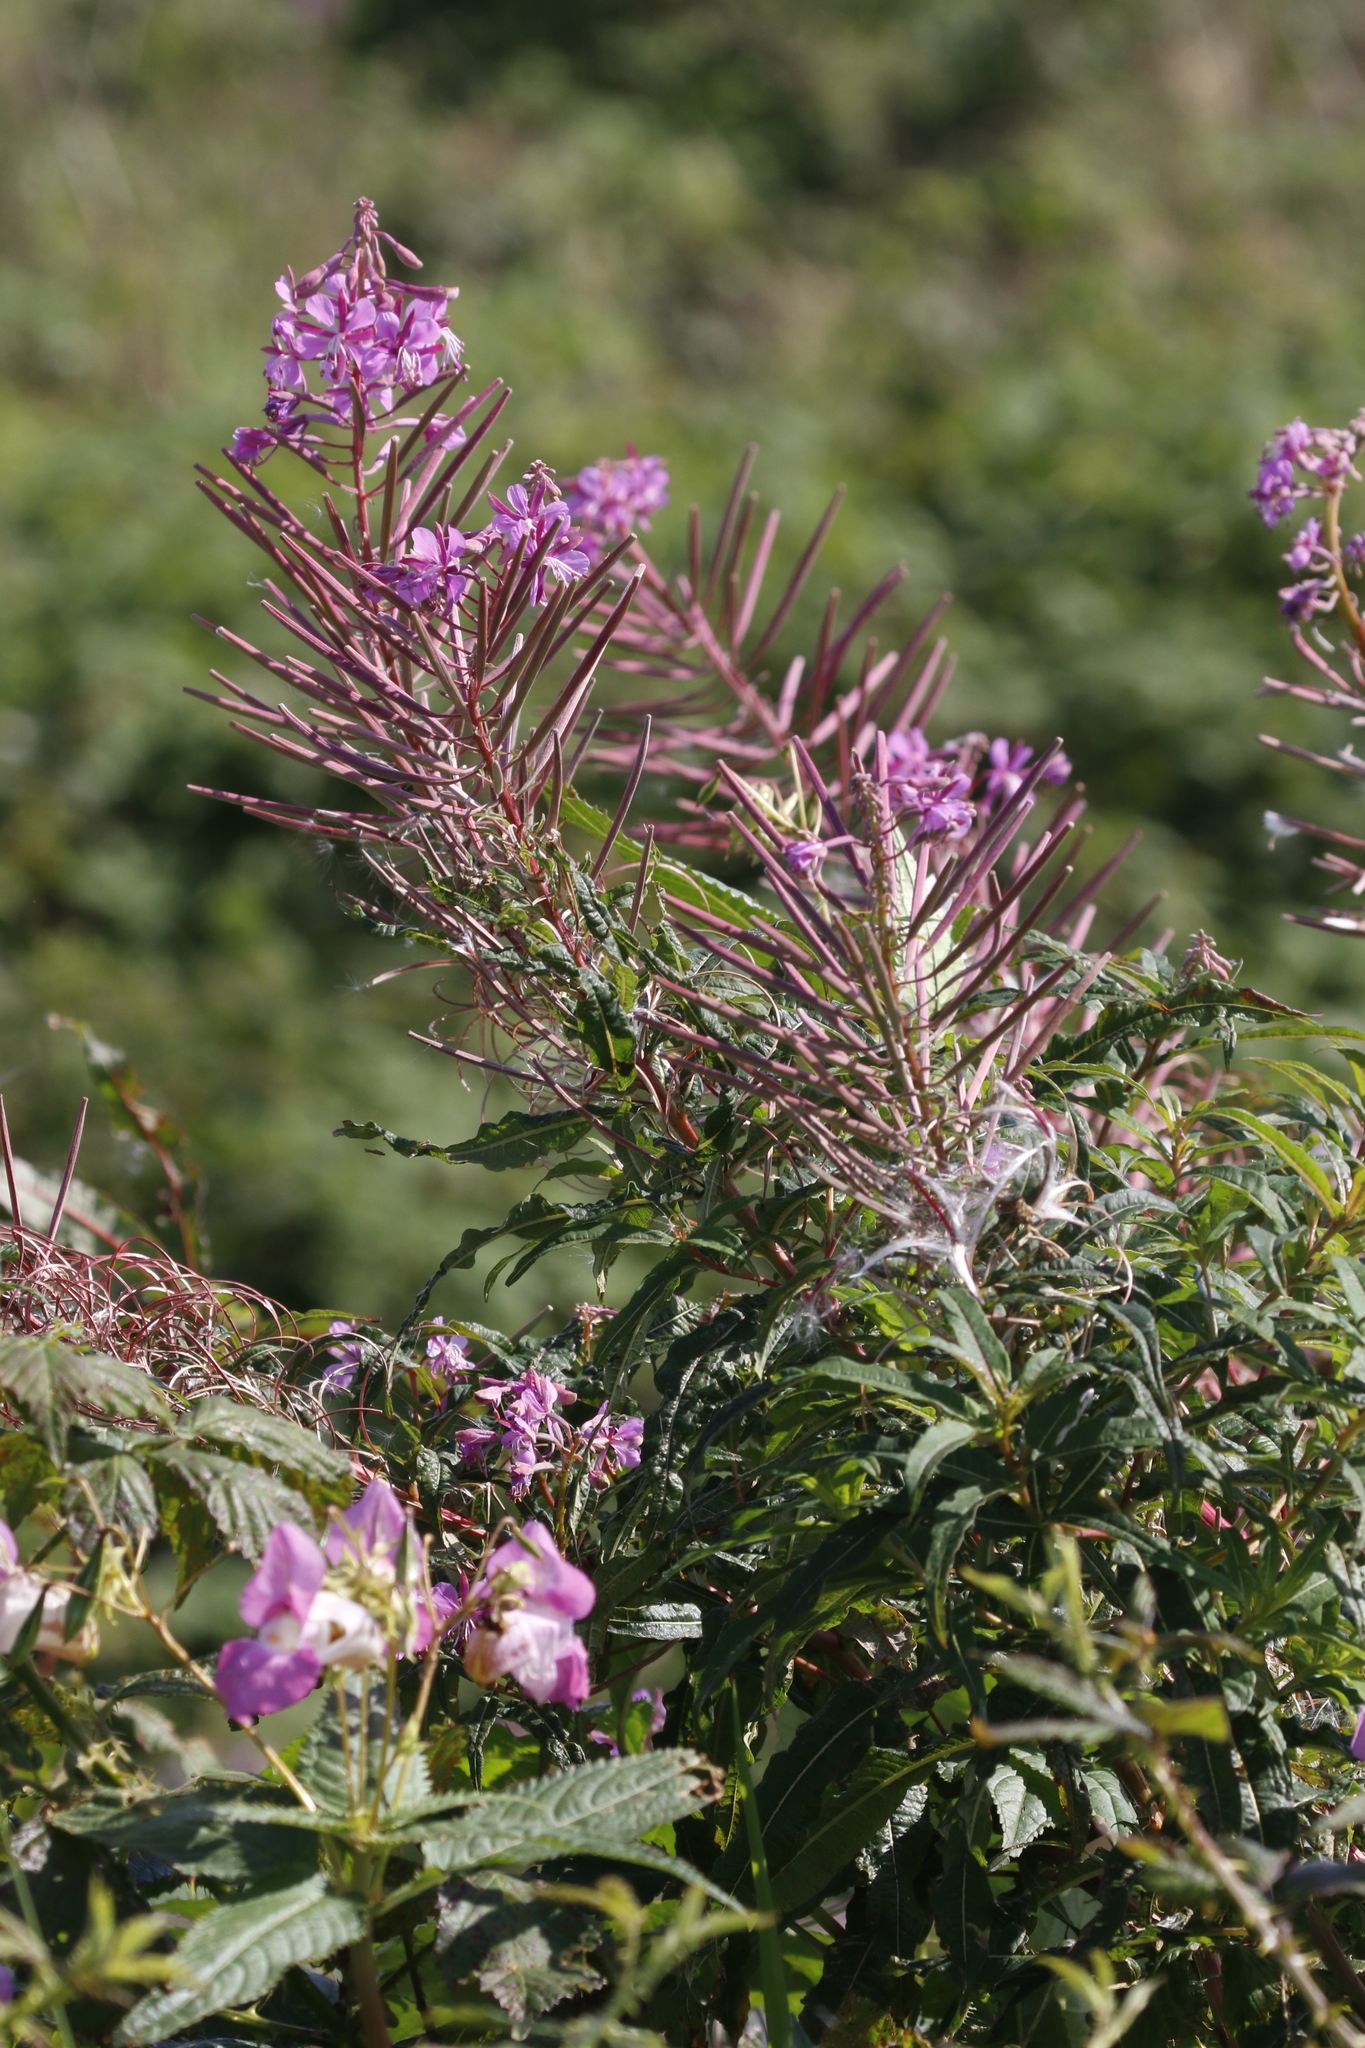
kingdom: Plantae
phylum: Tracheophyta
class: Magnoliopsida
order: Myrtales
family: Onagraceae
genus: Chamaenerion
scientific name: Chamaenerion angustifolium
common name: Fireweed
